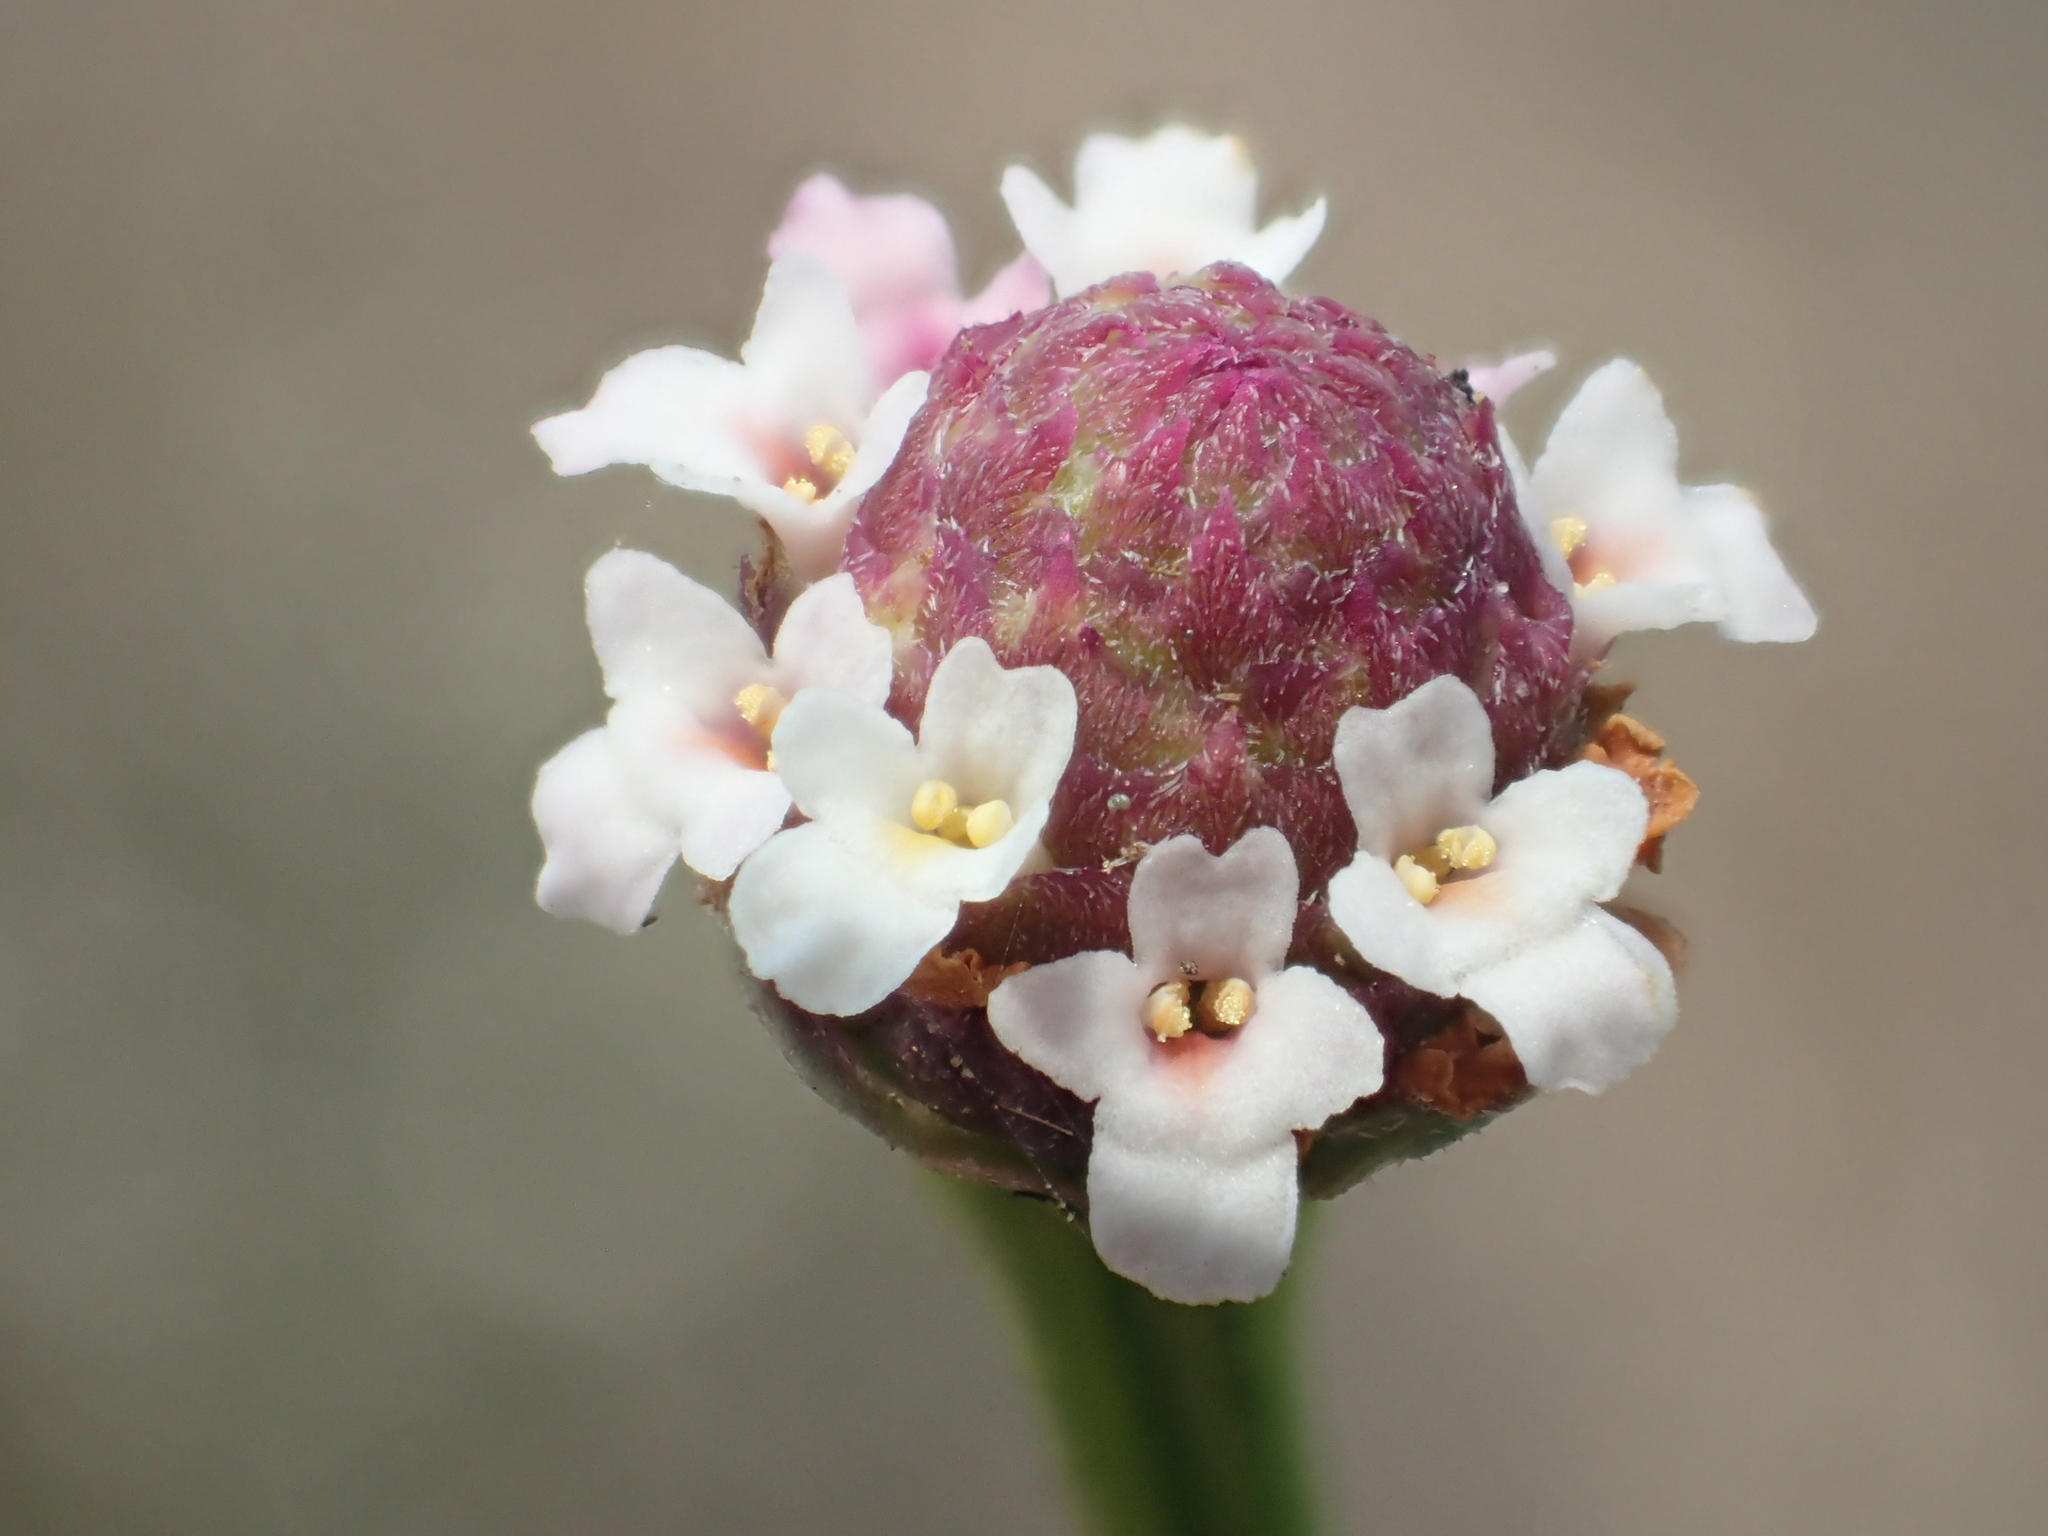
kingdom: Plantae
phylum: Tracheophyta
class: Magnoliopsida
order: Lamiales
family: Verbenaceae
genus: Phyla
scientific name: Phyla nodiflora
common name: Frogfruit
